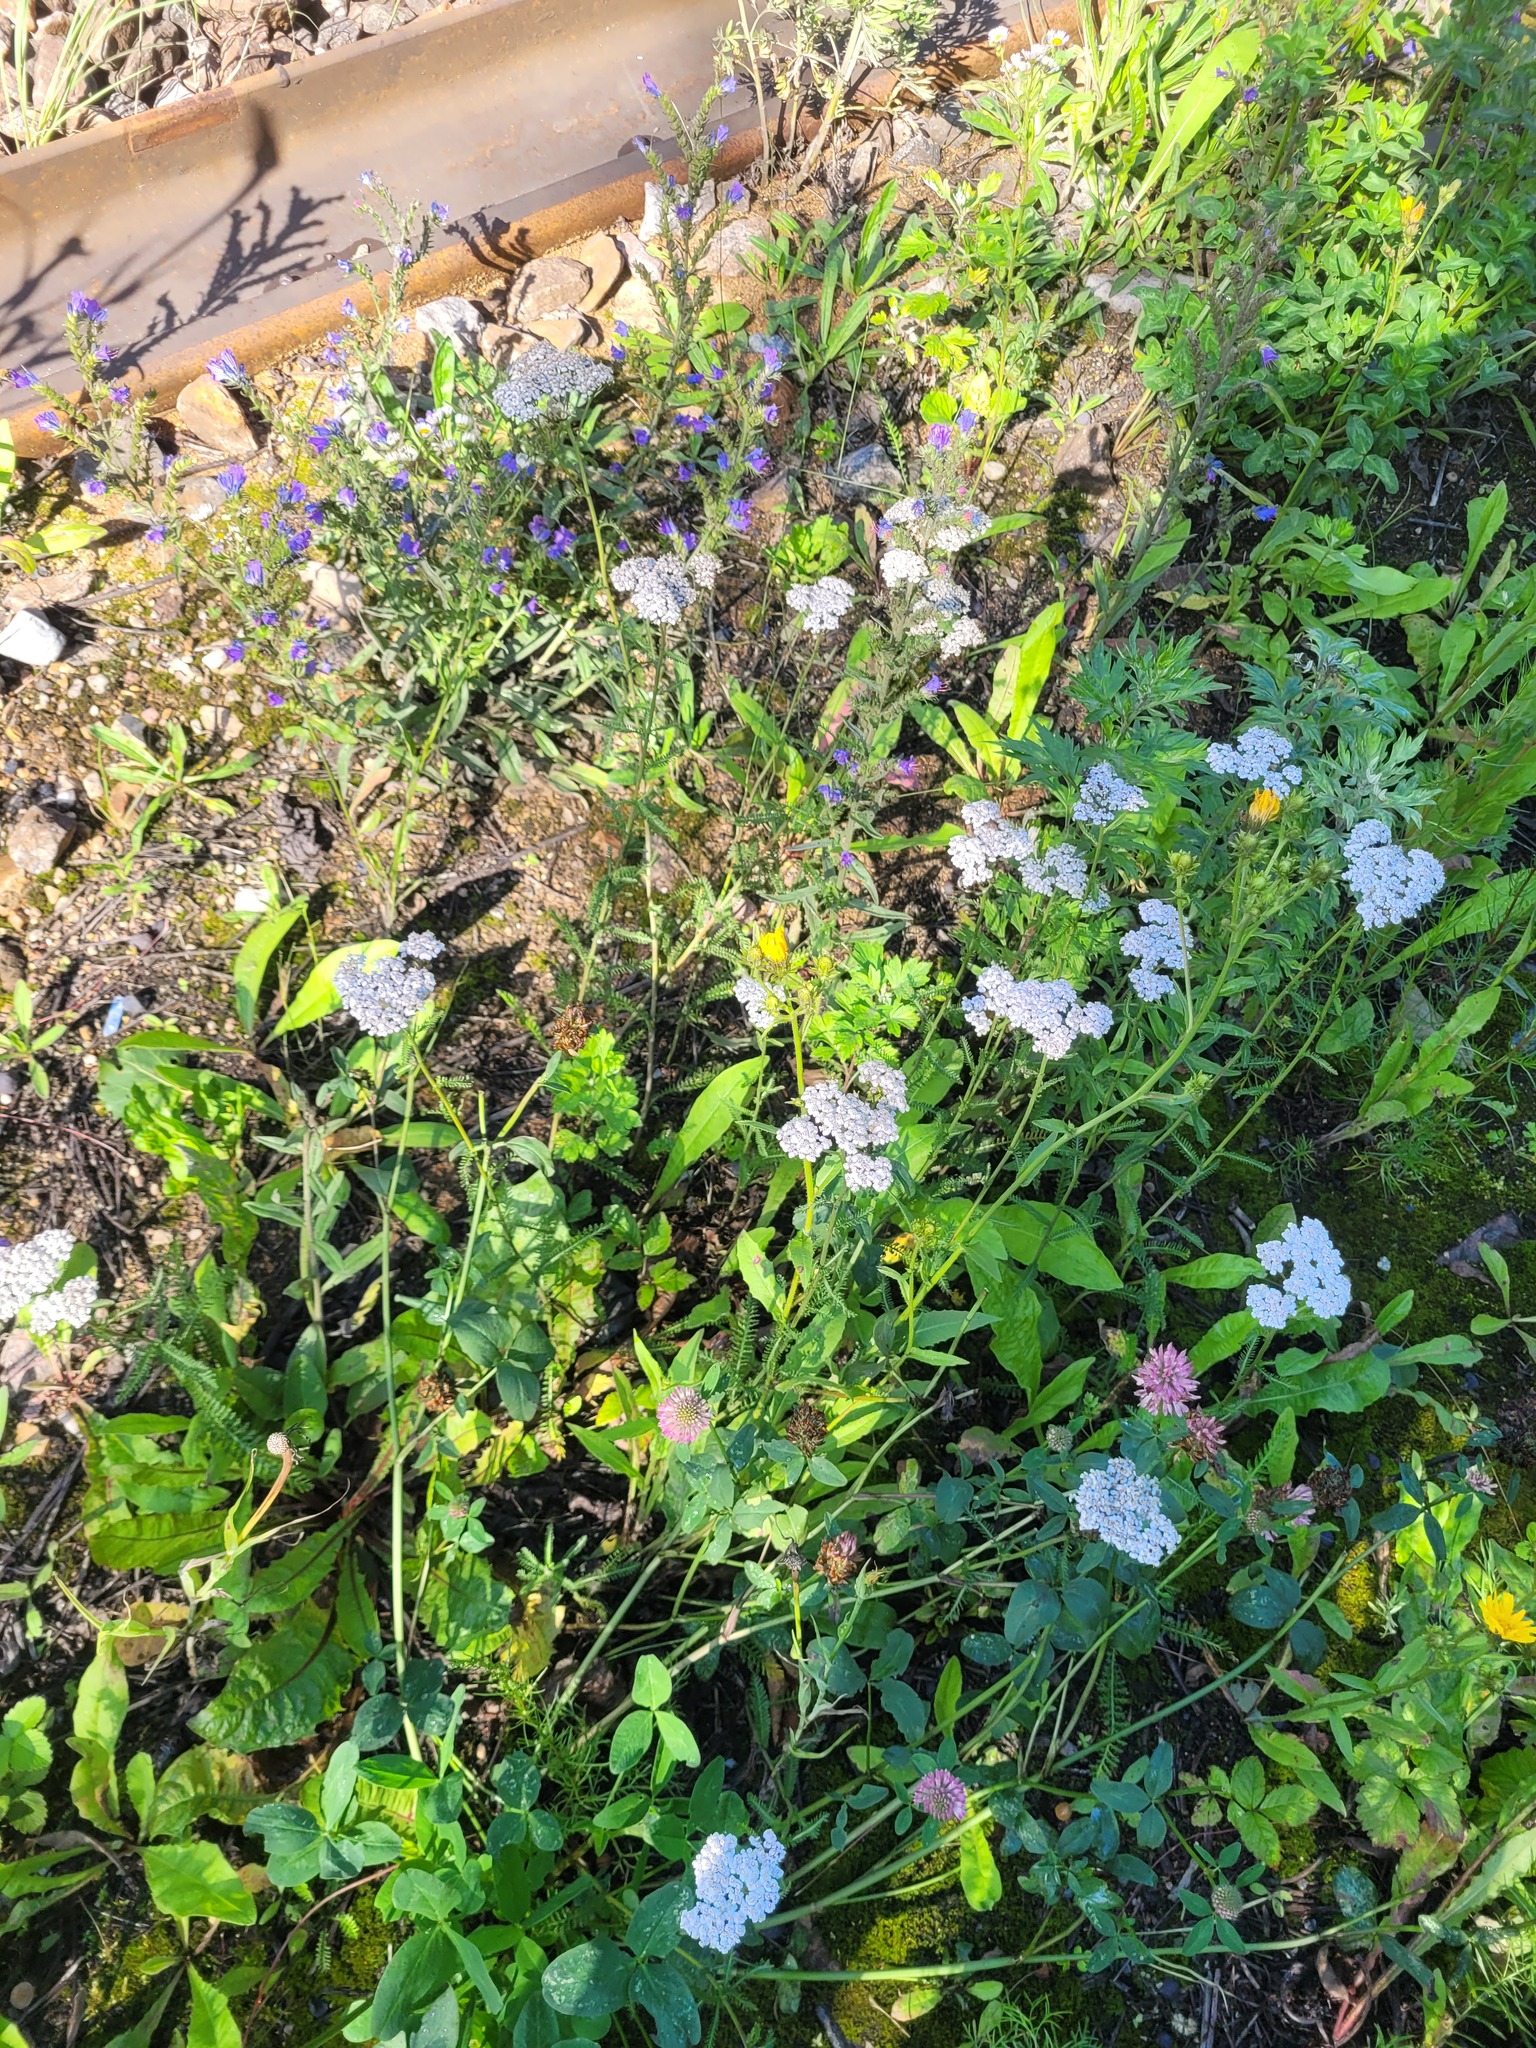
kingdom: Plantae
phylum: Tracheophyta
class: Magnoliopsida
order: Asterales
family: Asteraceae
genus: Achillea
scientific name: Achillea millefolium
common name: Yarrow
